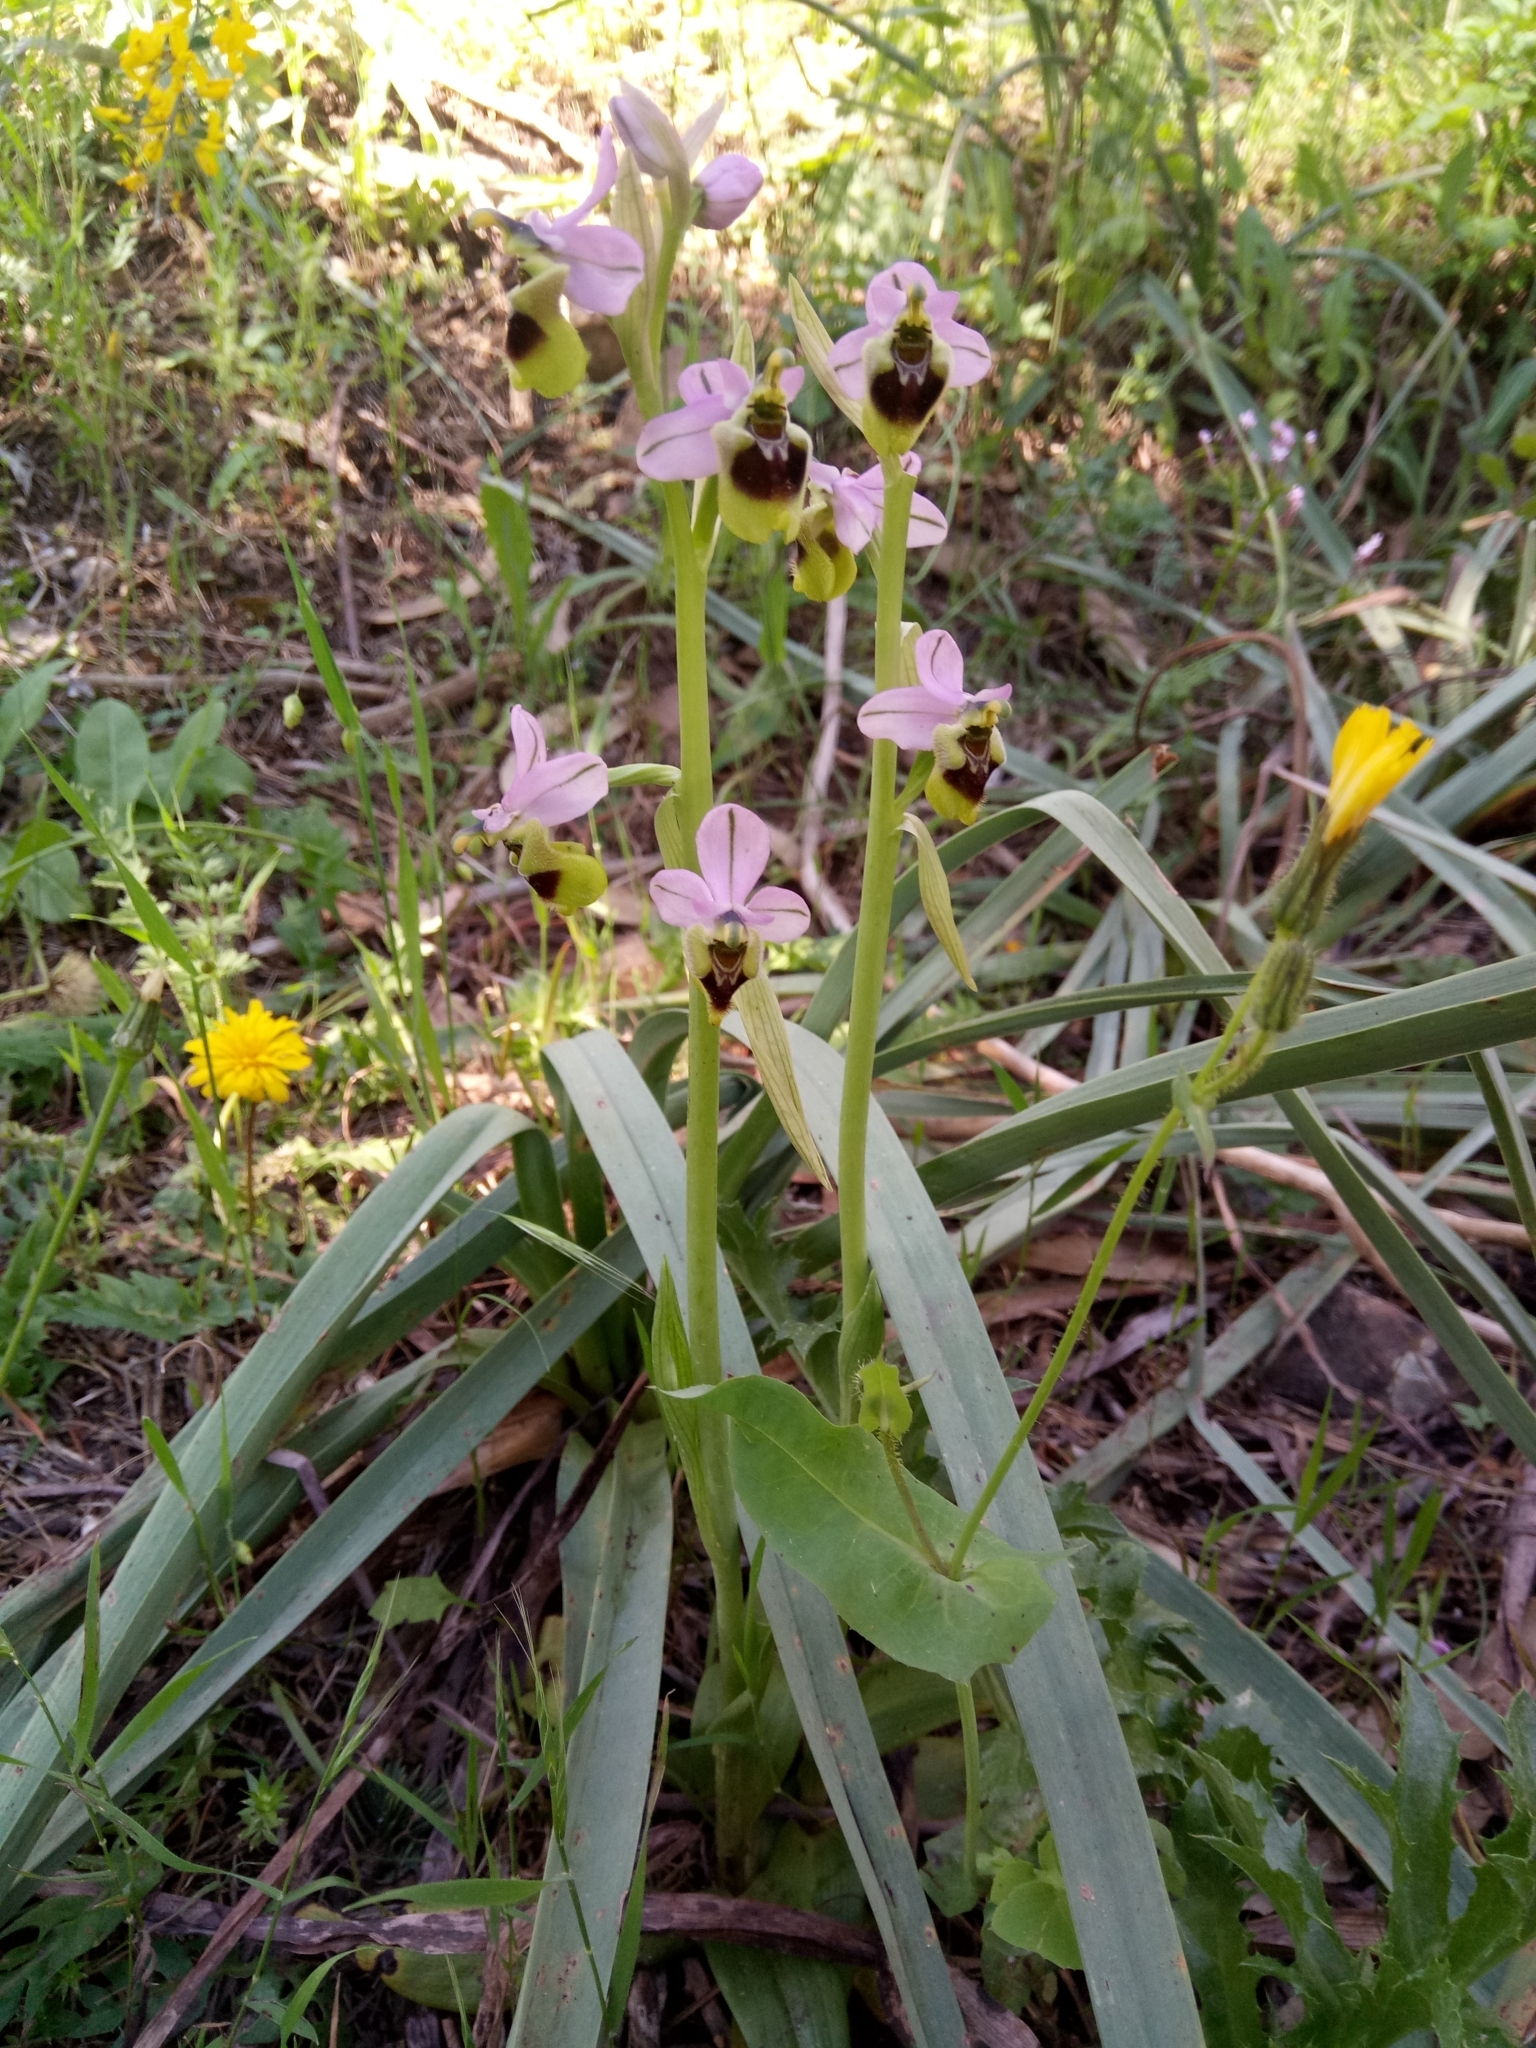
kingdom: Plantae
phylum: Tracheophyta
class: Liliopsida
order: Asparagales
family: Orchidaceae
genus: Ophrys
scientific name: Ophrys tenthredinifera
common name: Sawfly orchid
